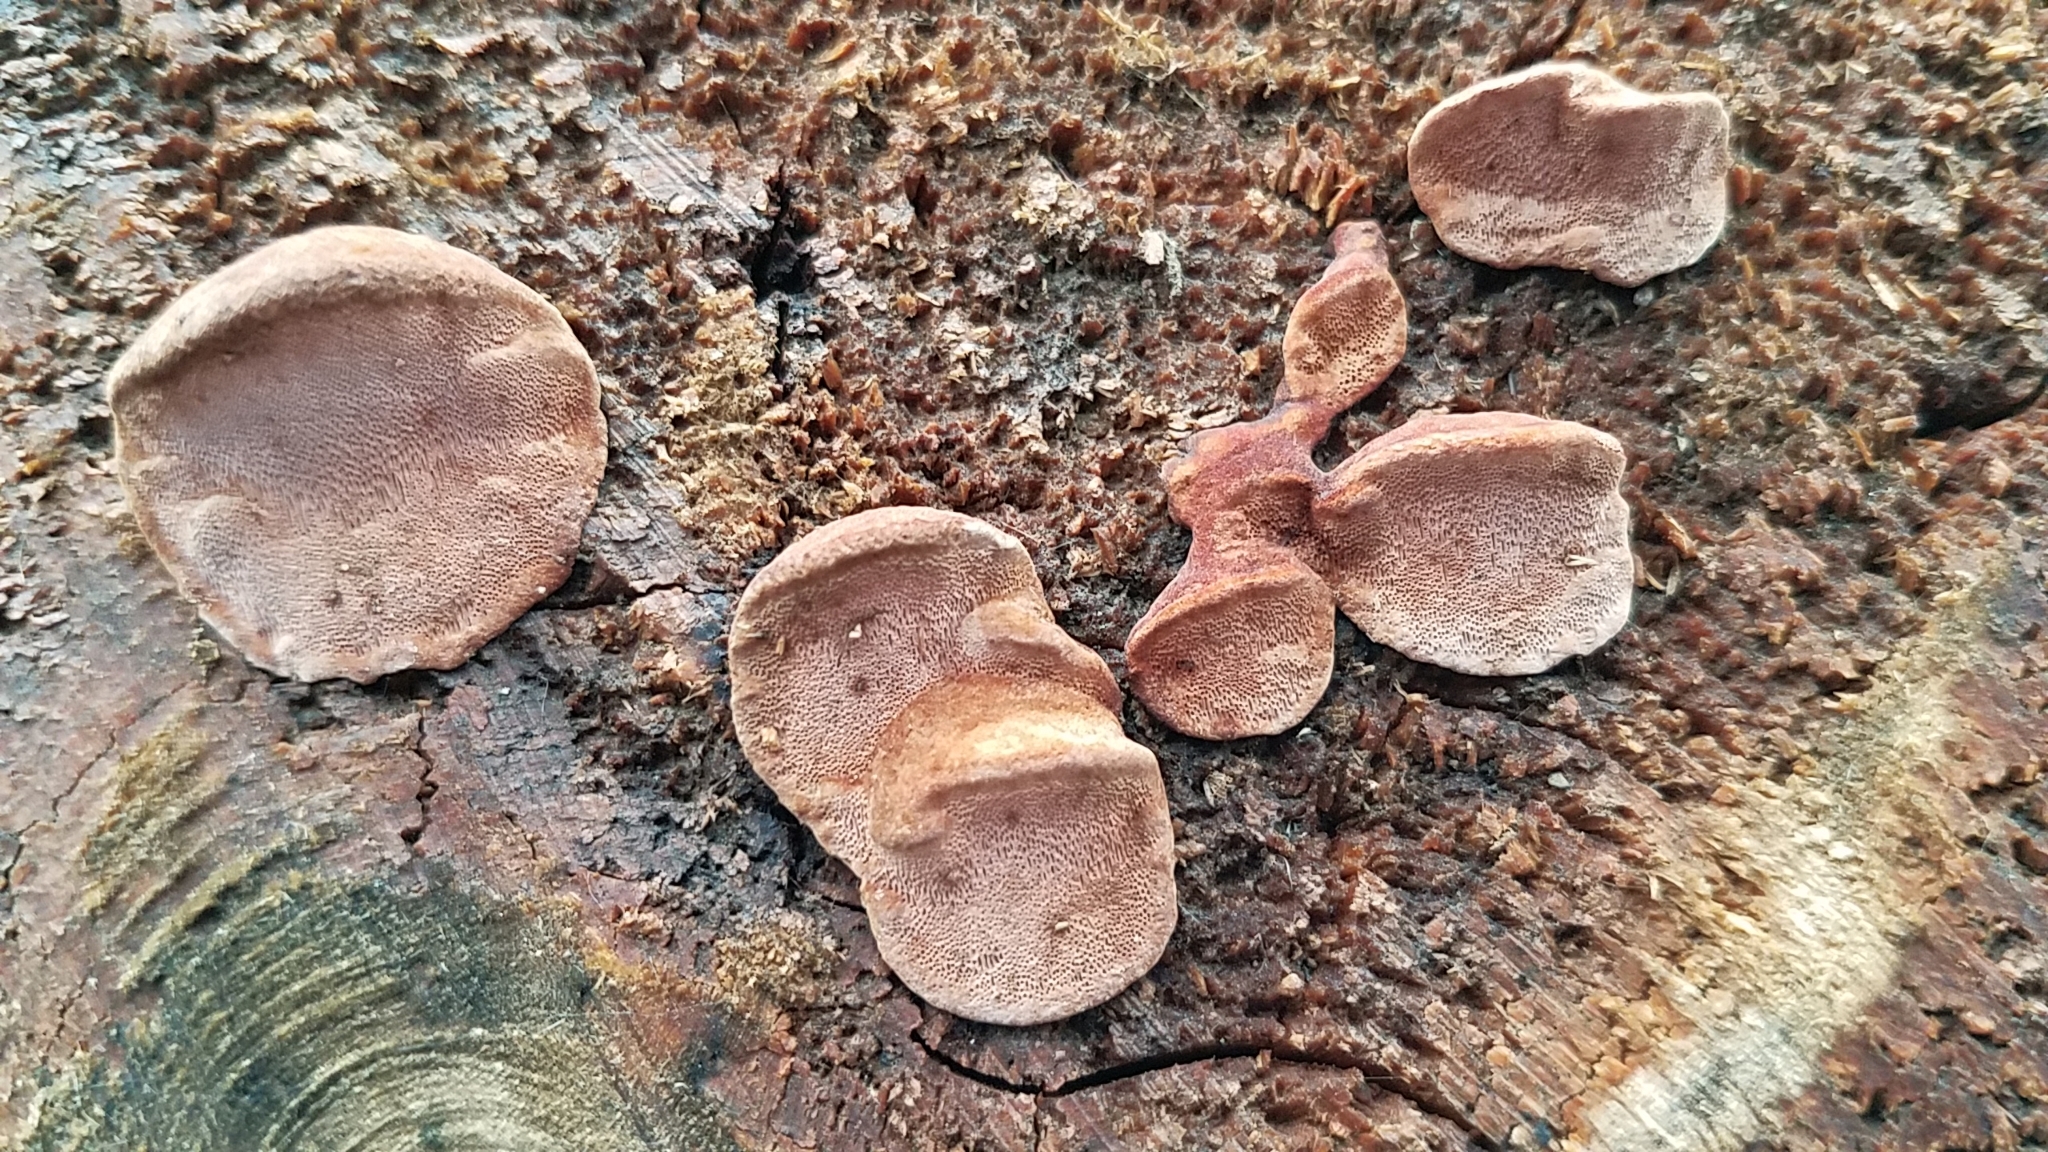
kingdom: Fungi
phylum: Basidiomycota
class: Agaricomycetes
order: Polyporales
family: Fomitopsidaceae
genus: Rhodofomes
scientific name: Rhodofomes cajanderi
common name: Rosy conk
